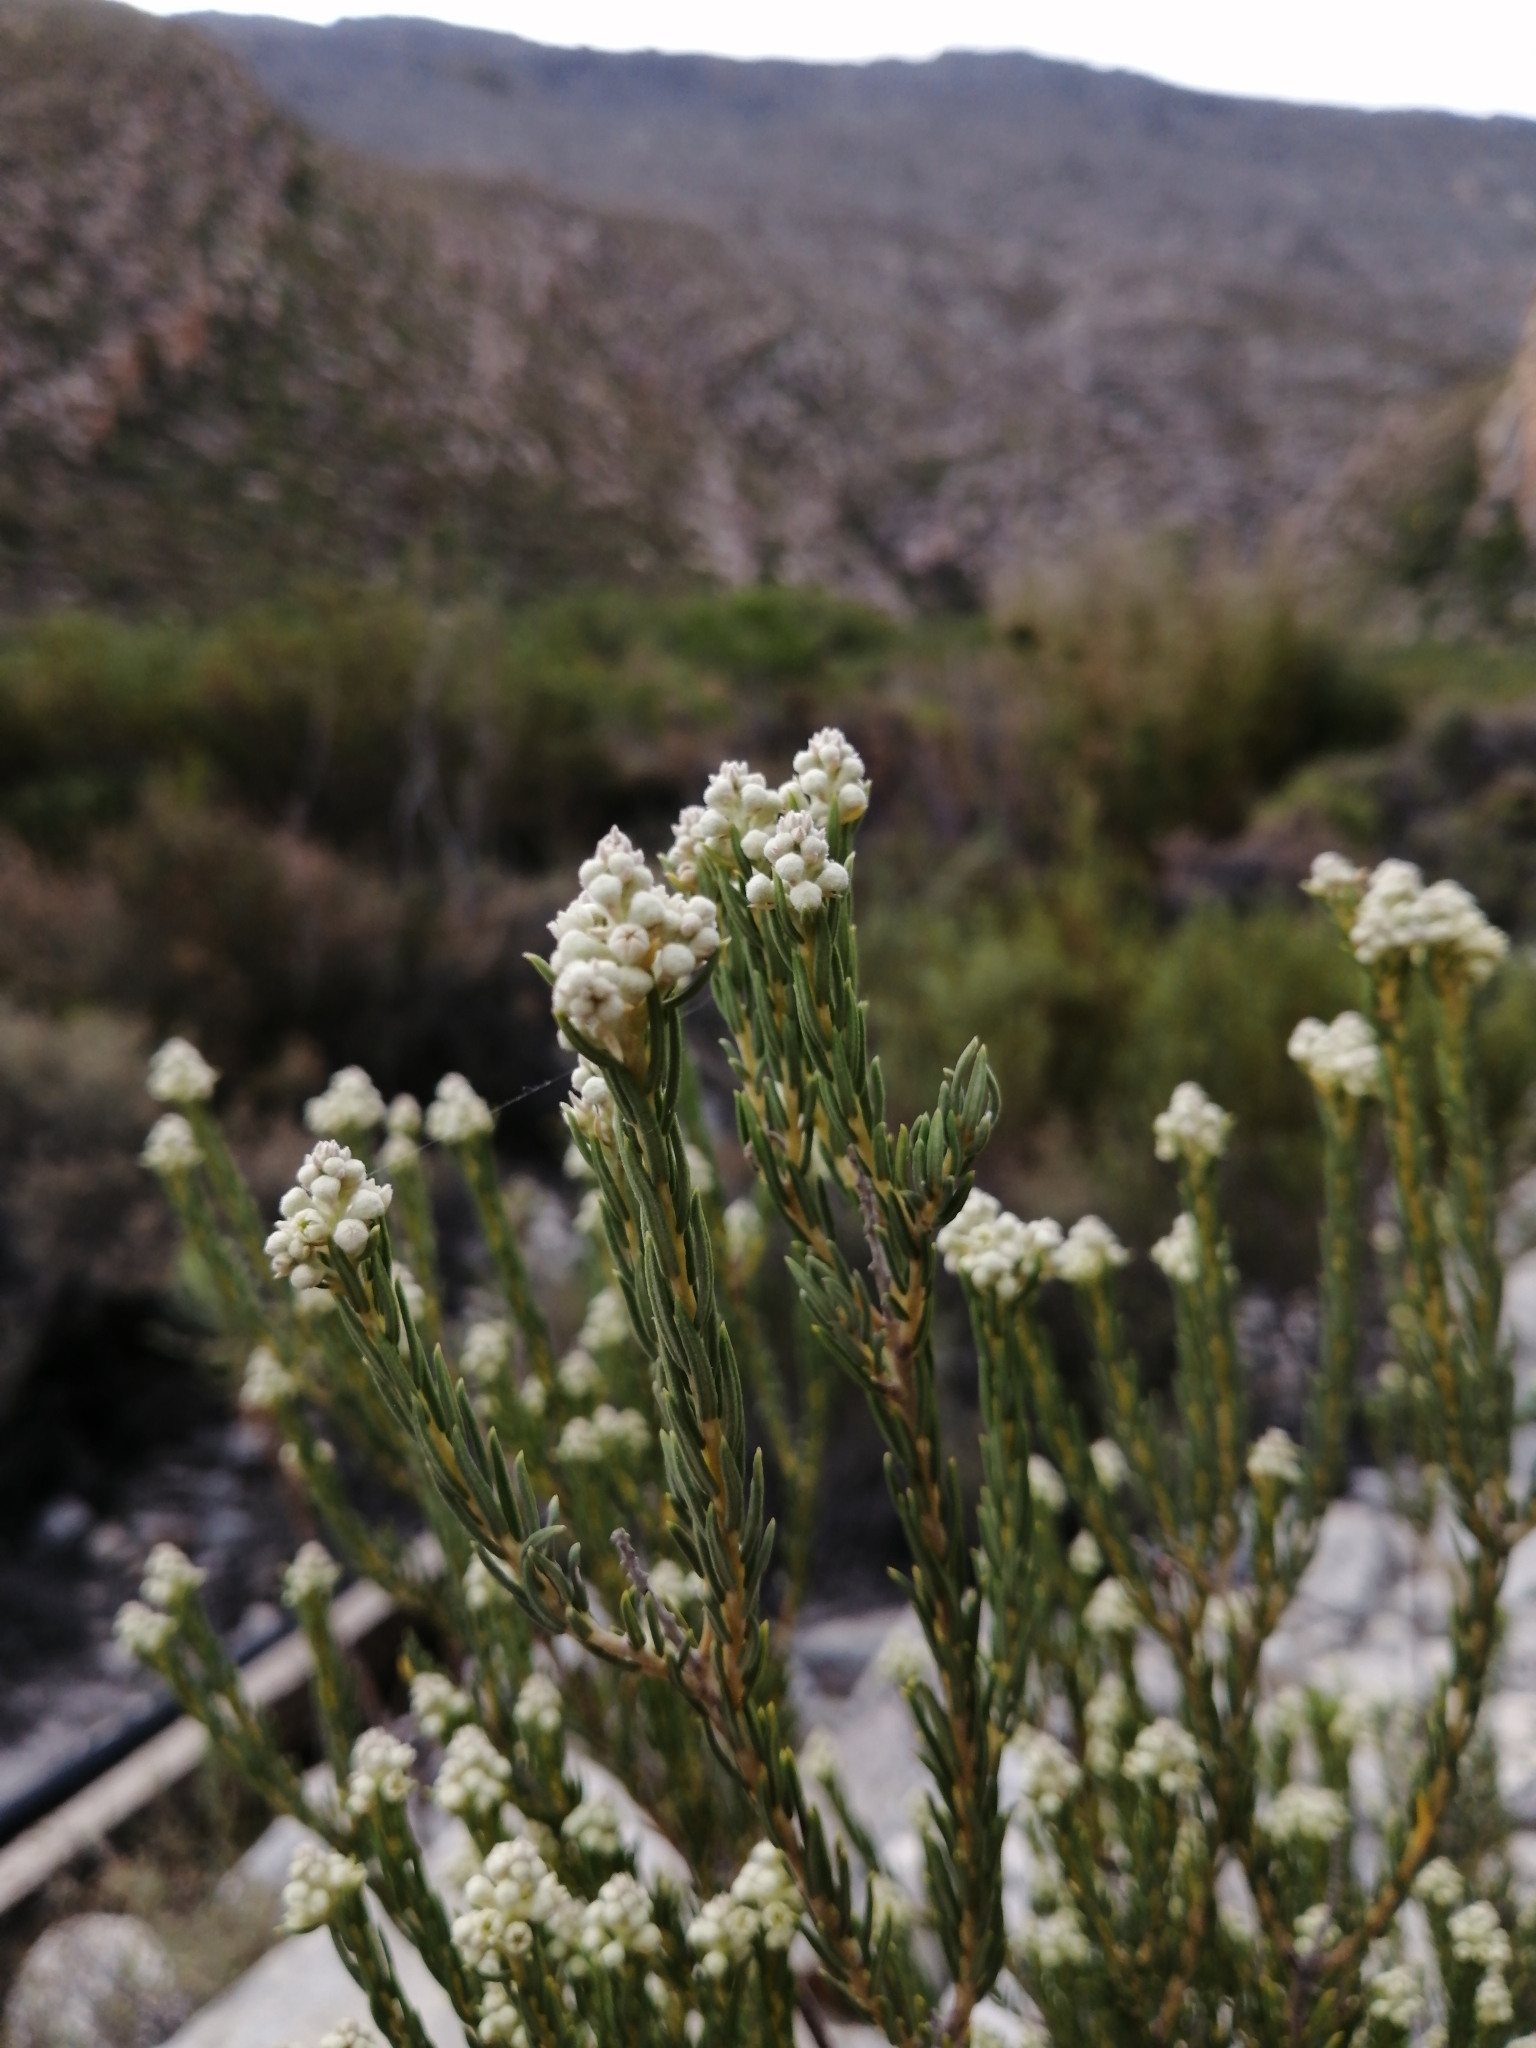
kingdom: Plantae
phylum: Tracheophyta
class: Magnoliopsida
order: Rosales
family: Rhamnaceae
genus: Phylica
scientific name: Phylica rigidifolia
